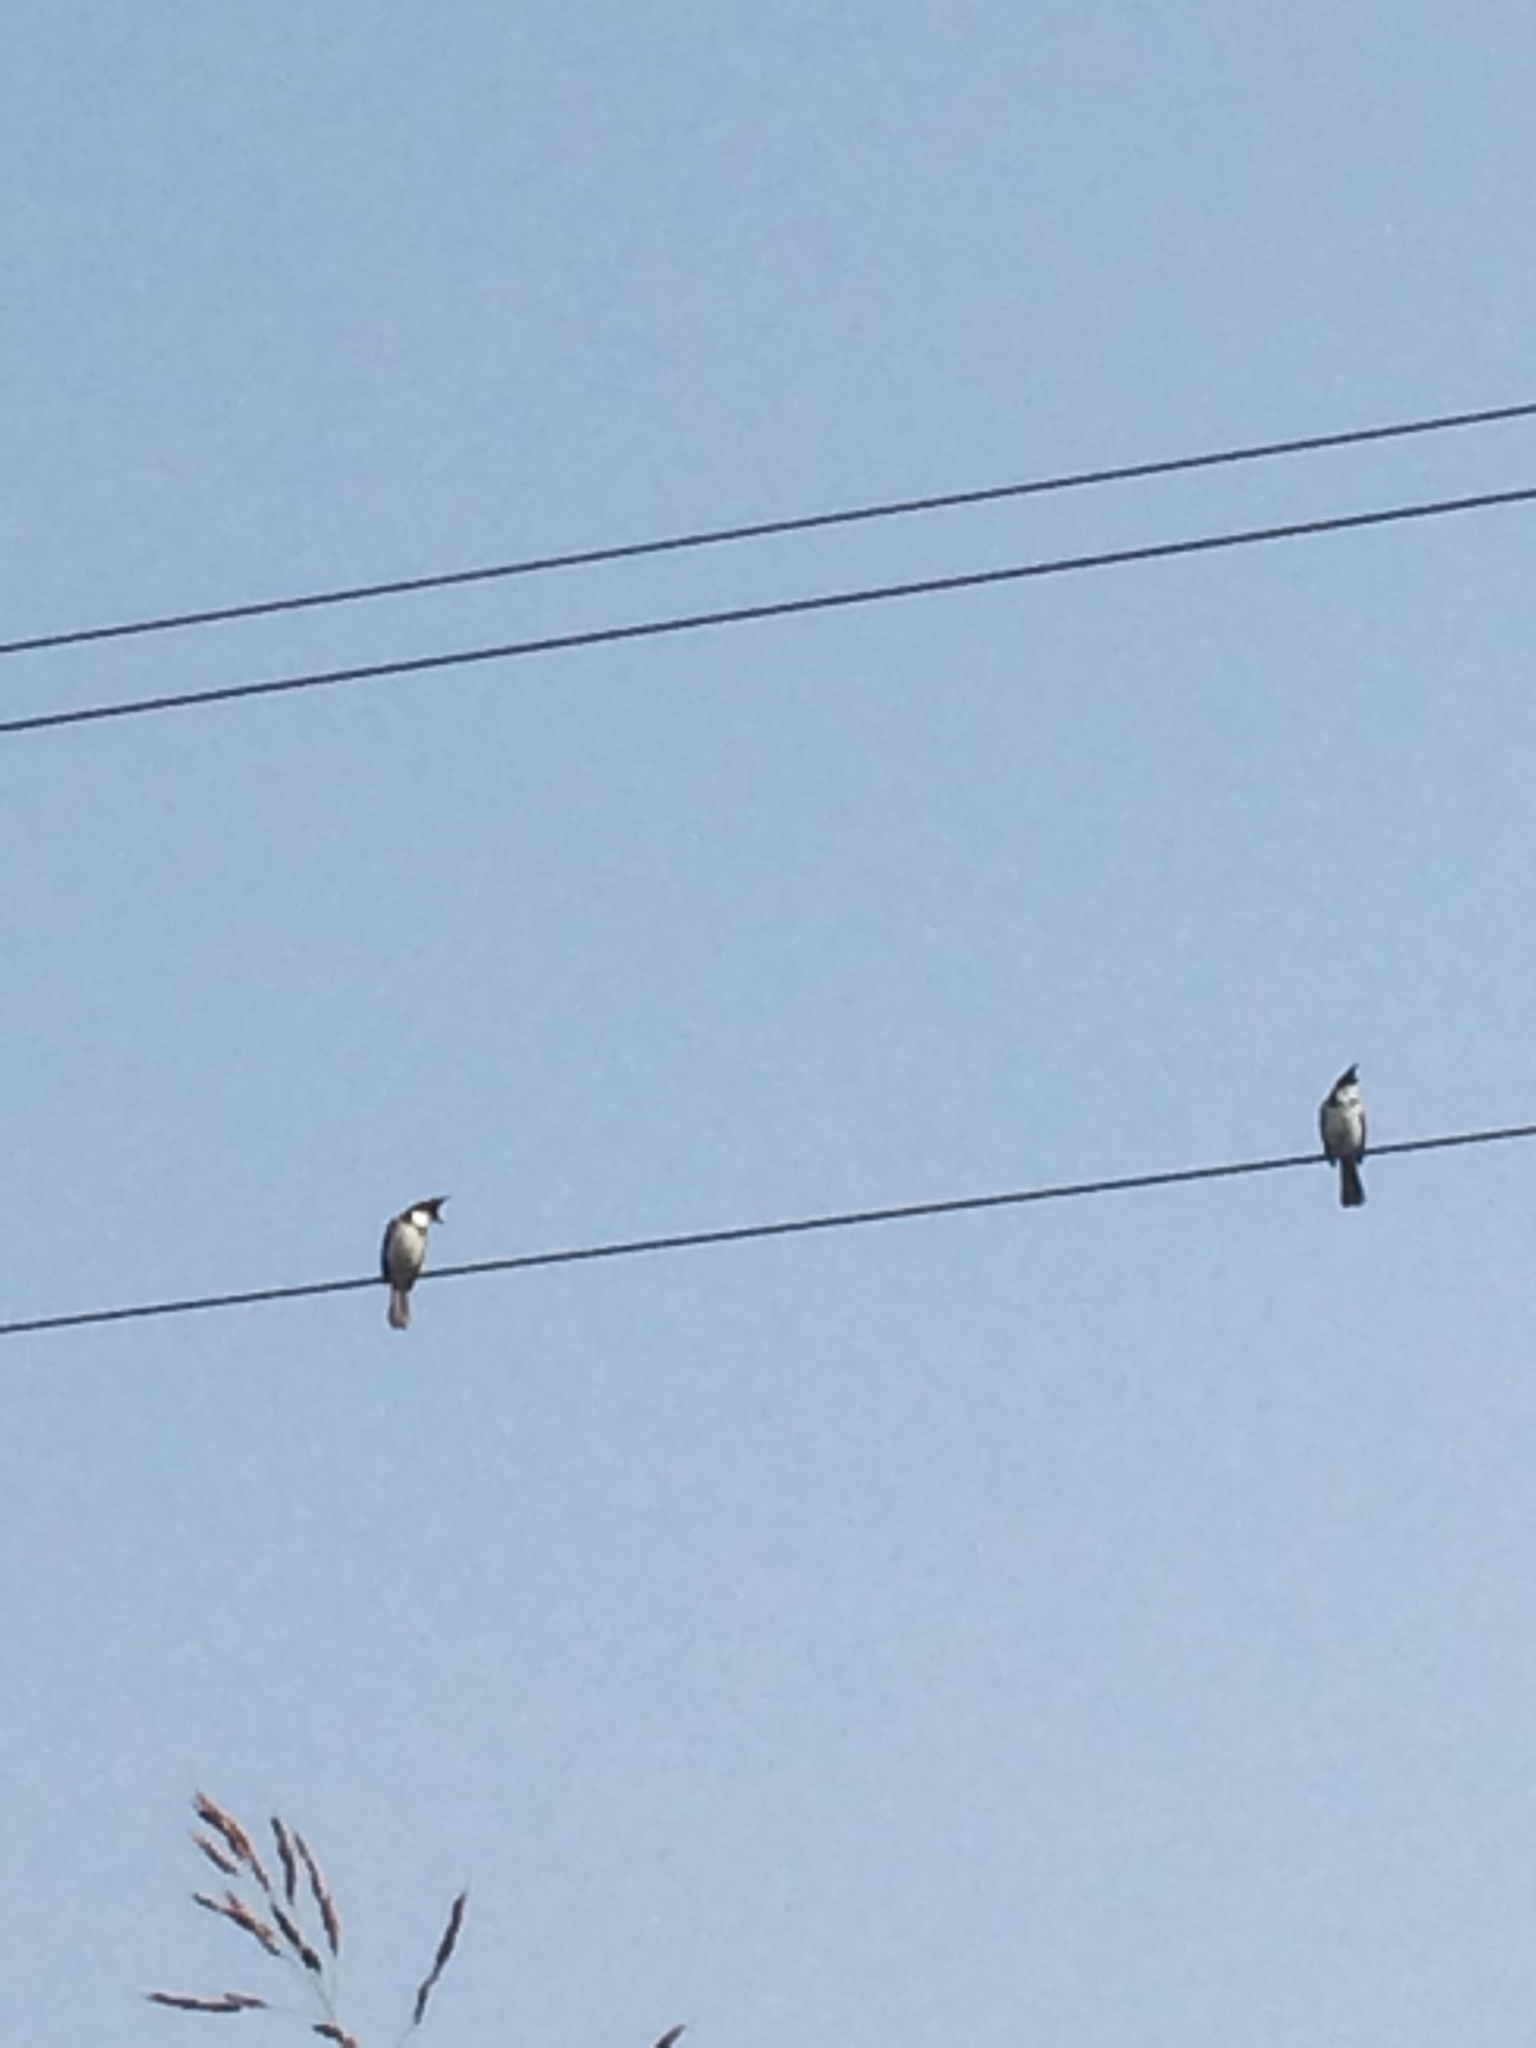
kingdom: Animalia
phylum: Chordata
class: Aves
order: Passeriformes
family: Pycnonotidae
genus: Pycnonotus
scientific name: Pycnonotus jocosus
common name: Red-whiskered bulbul
